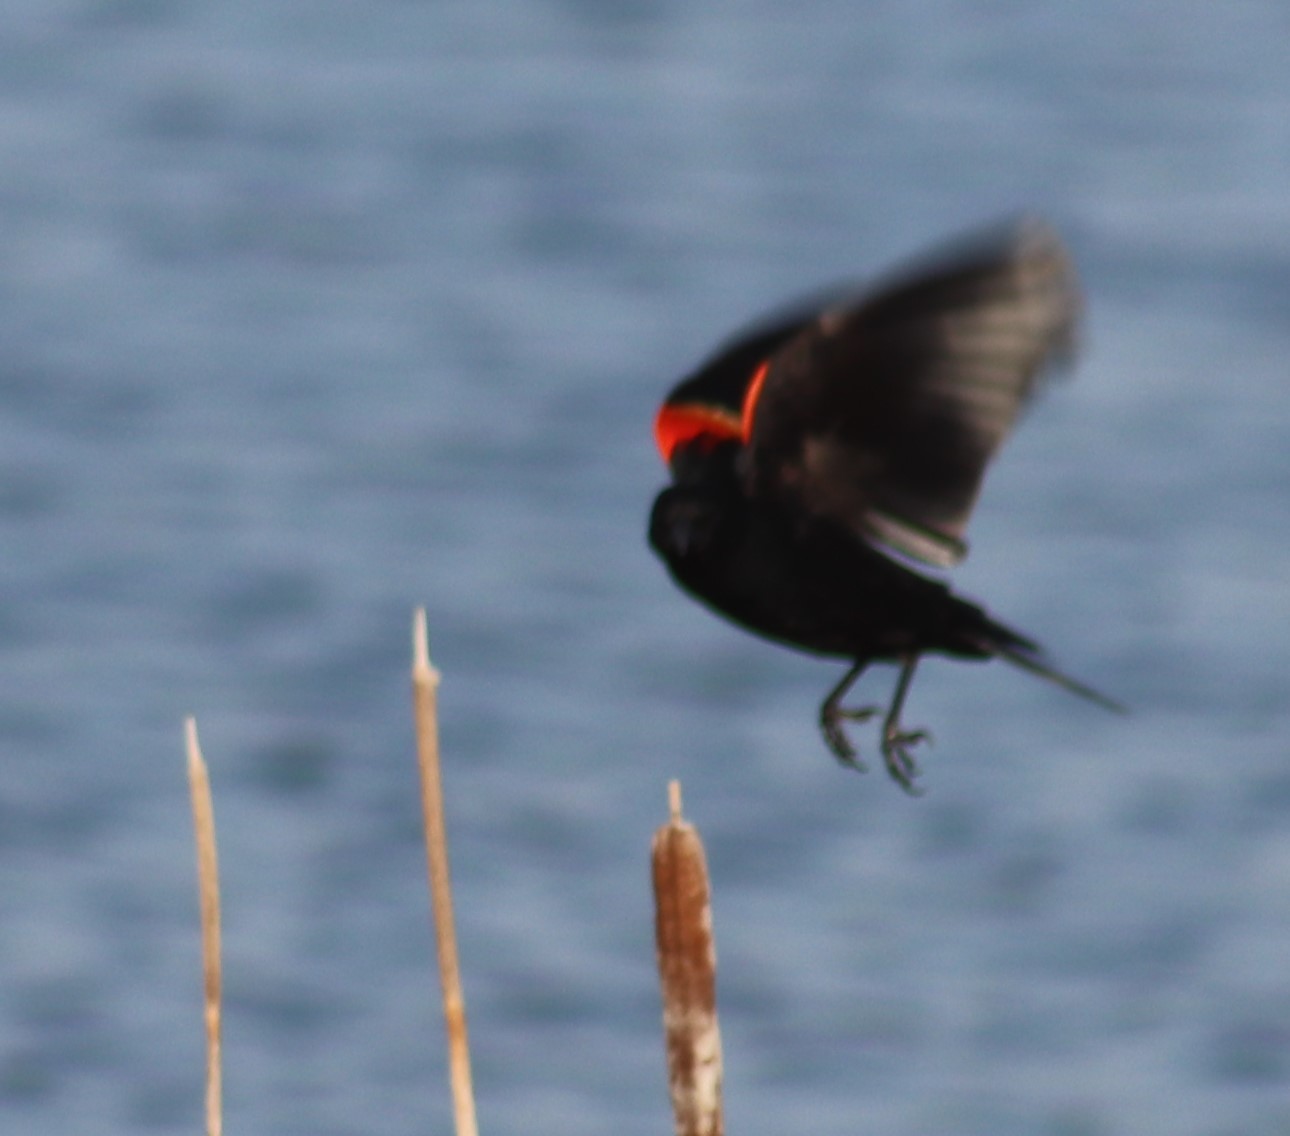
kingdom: Animalia
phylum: Chordata
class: Aves
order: Passeriformes
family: Icteridae
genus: Agelaius
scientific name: Agelaius phoeniceus
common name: Red-winged blackbird
